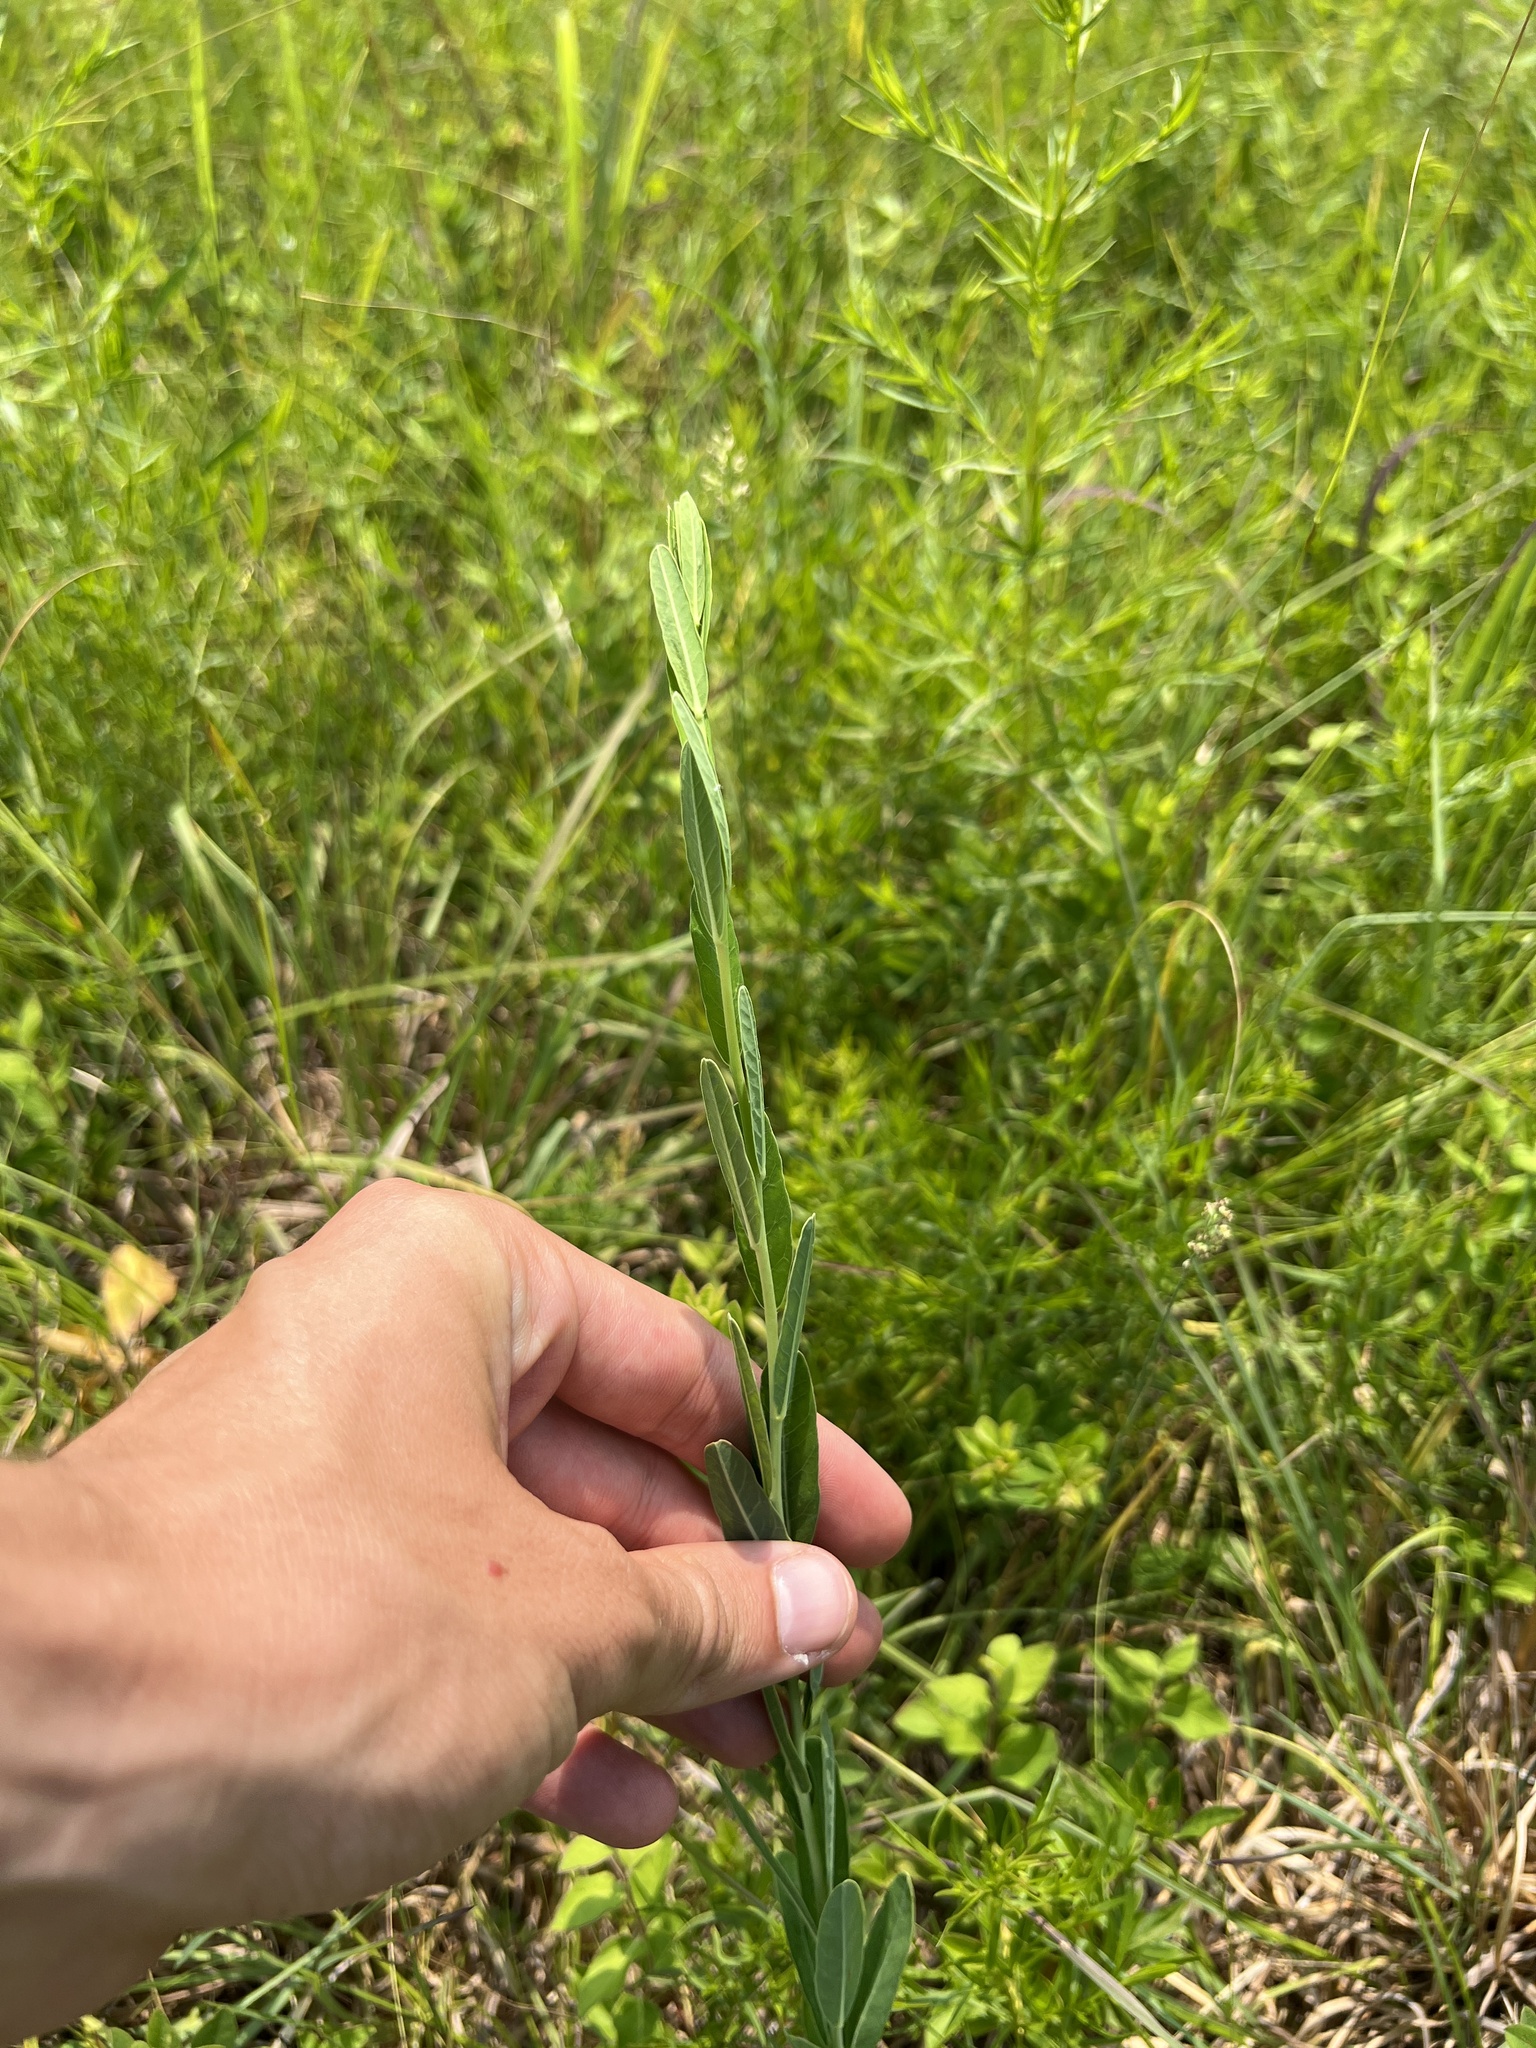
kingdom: Plantae
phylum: Tracheophyta
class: Magnoliopsida
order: Malpighiales
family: Euphorbiaceae
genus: Euphorbia
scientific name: Euphorbia corollata
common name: Flowering spurge
